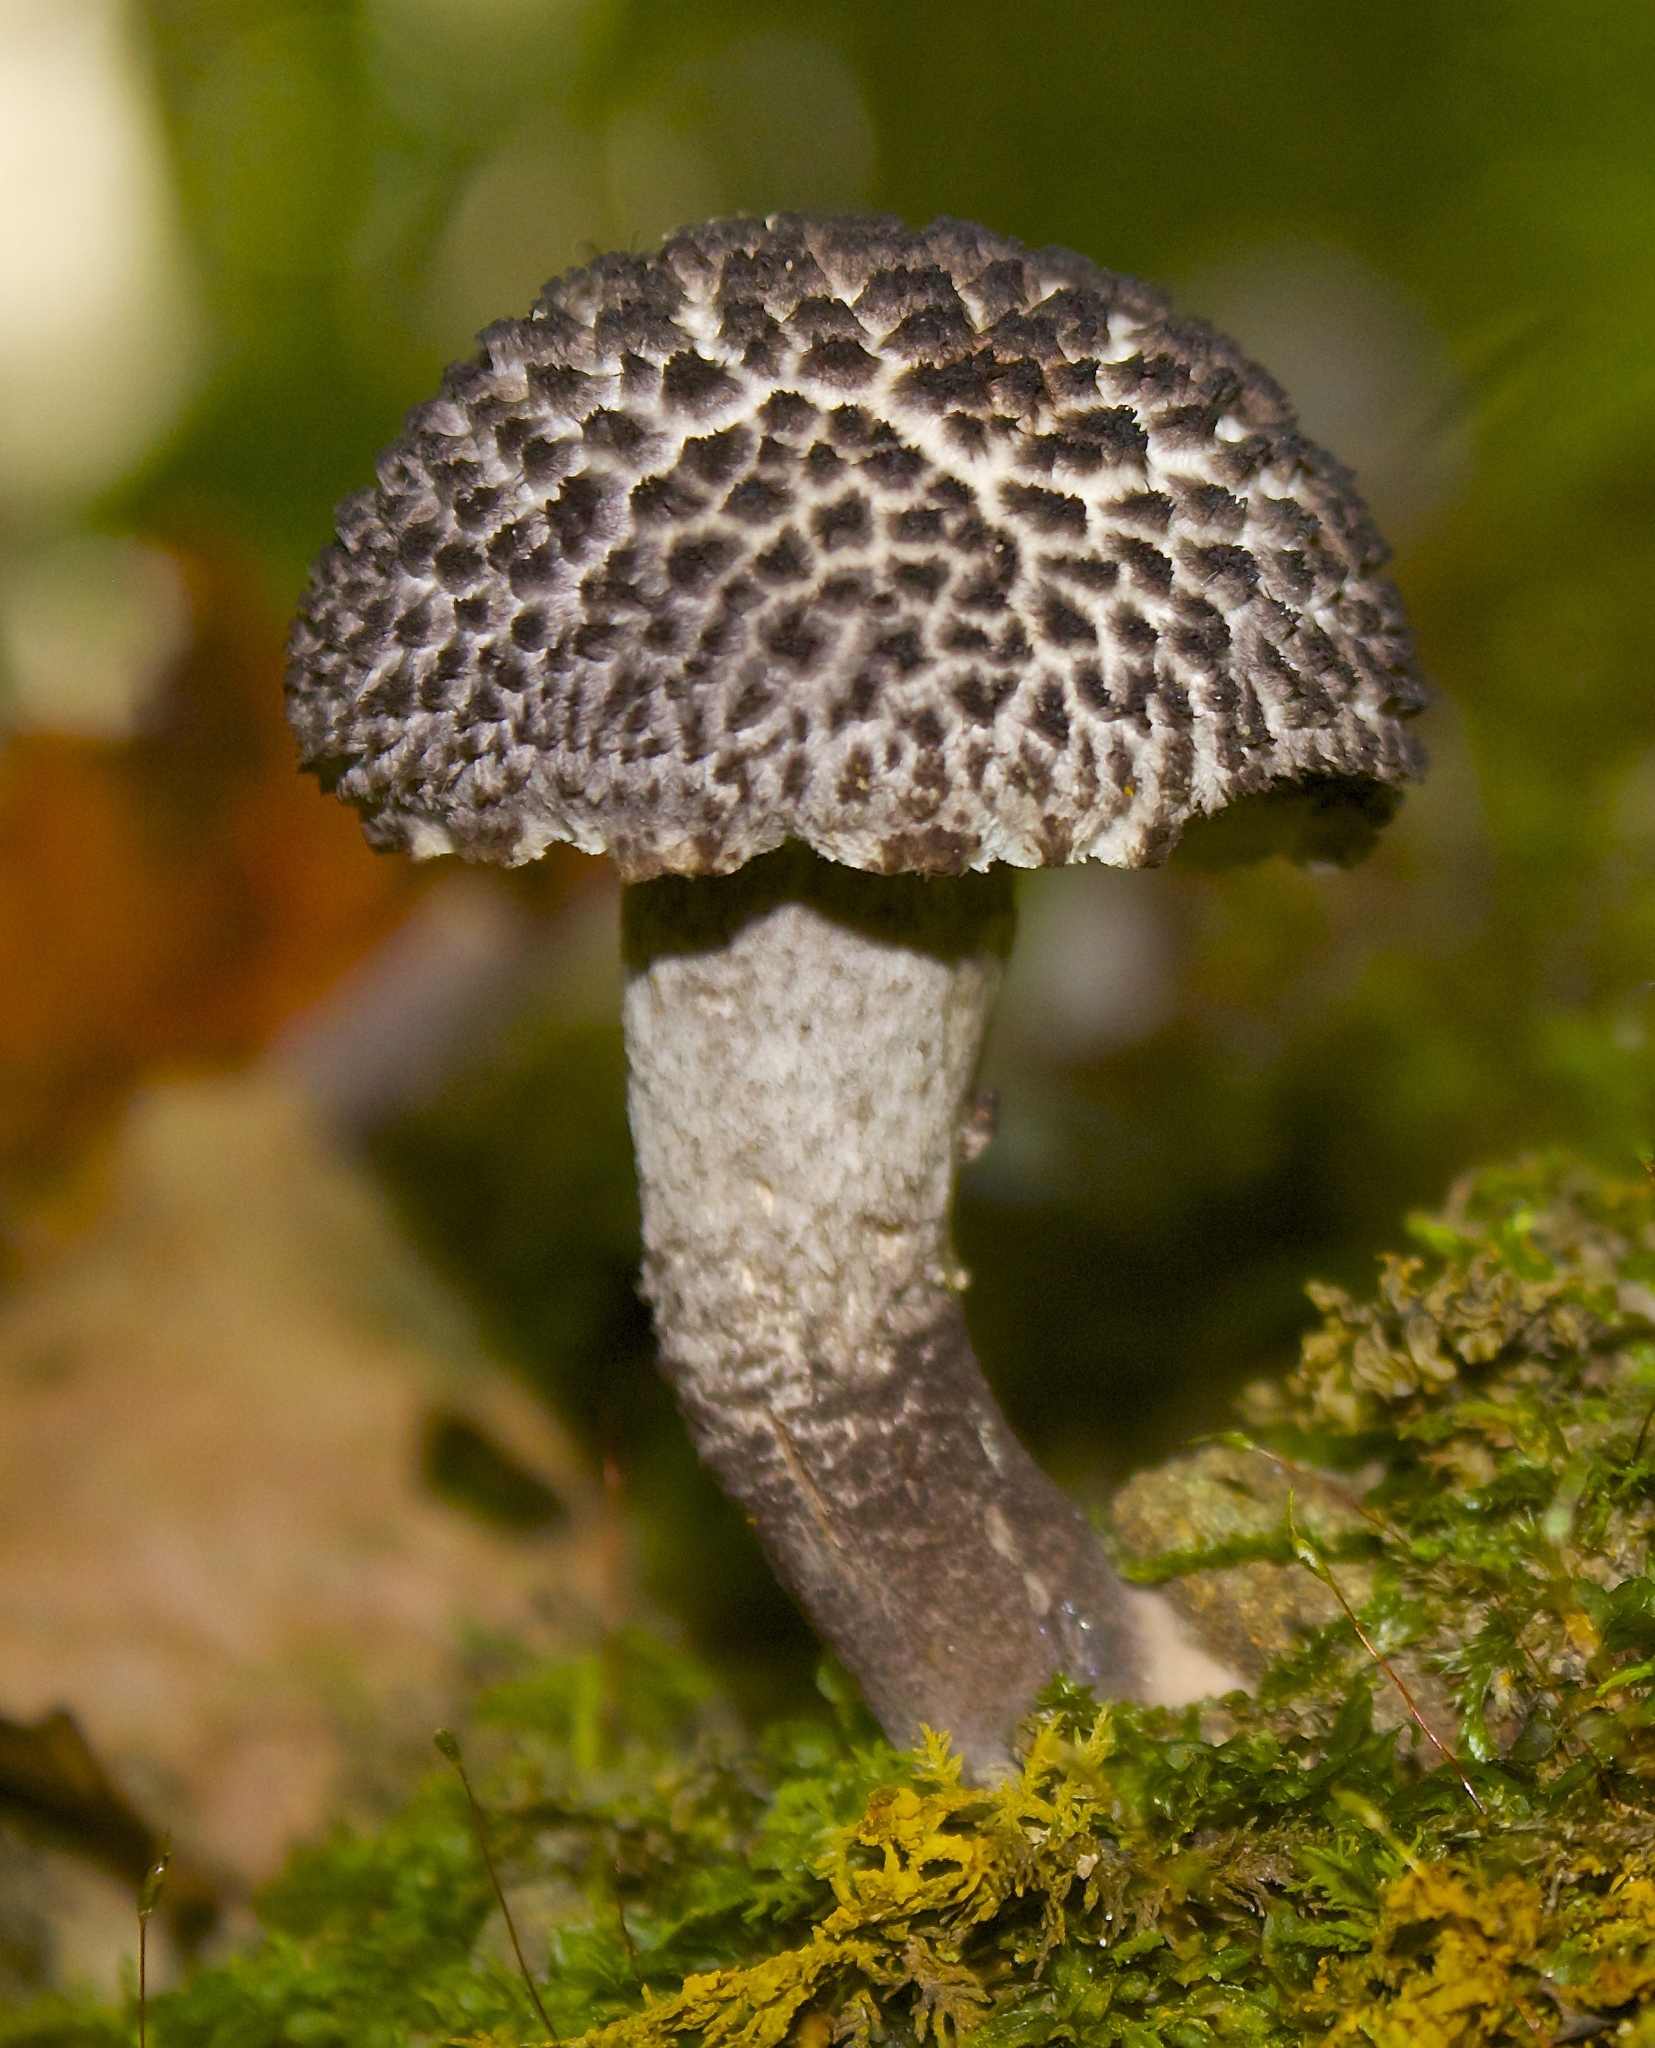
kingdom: Fungi
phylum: Basidiomycota
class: Agaricomycetes
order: Boletales
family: Boletaceae
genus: Strobilomyces
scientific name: Strobilomyces strobilaceus
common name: Old man of the woods
